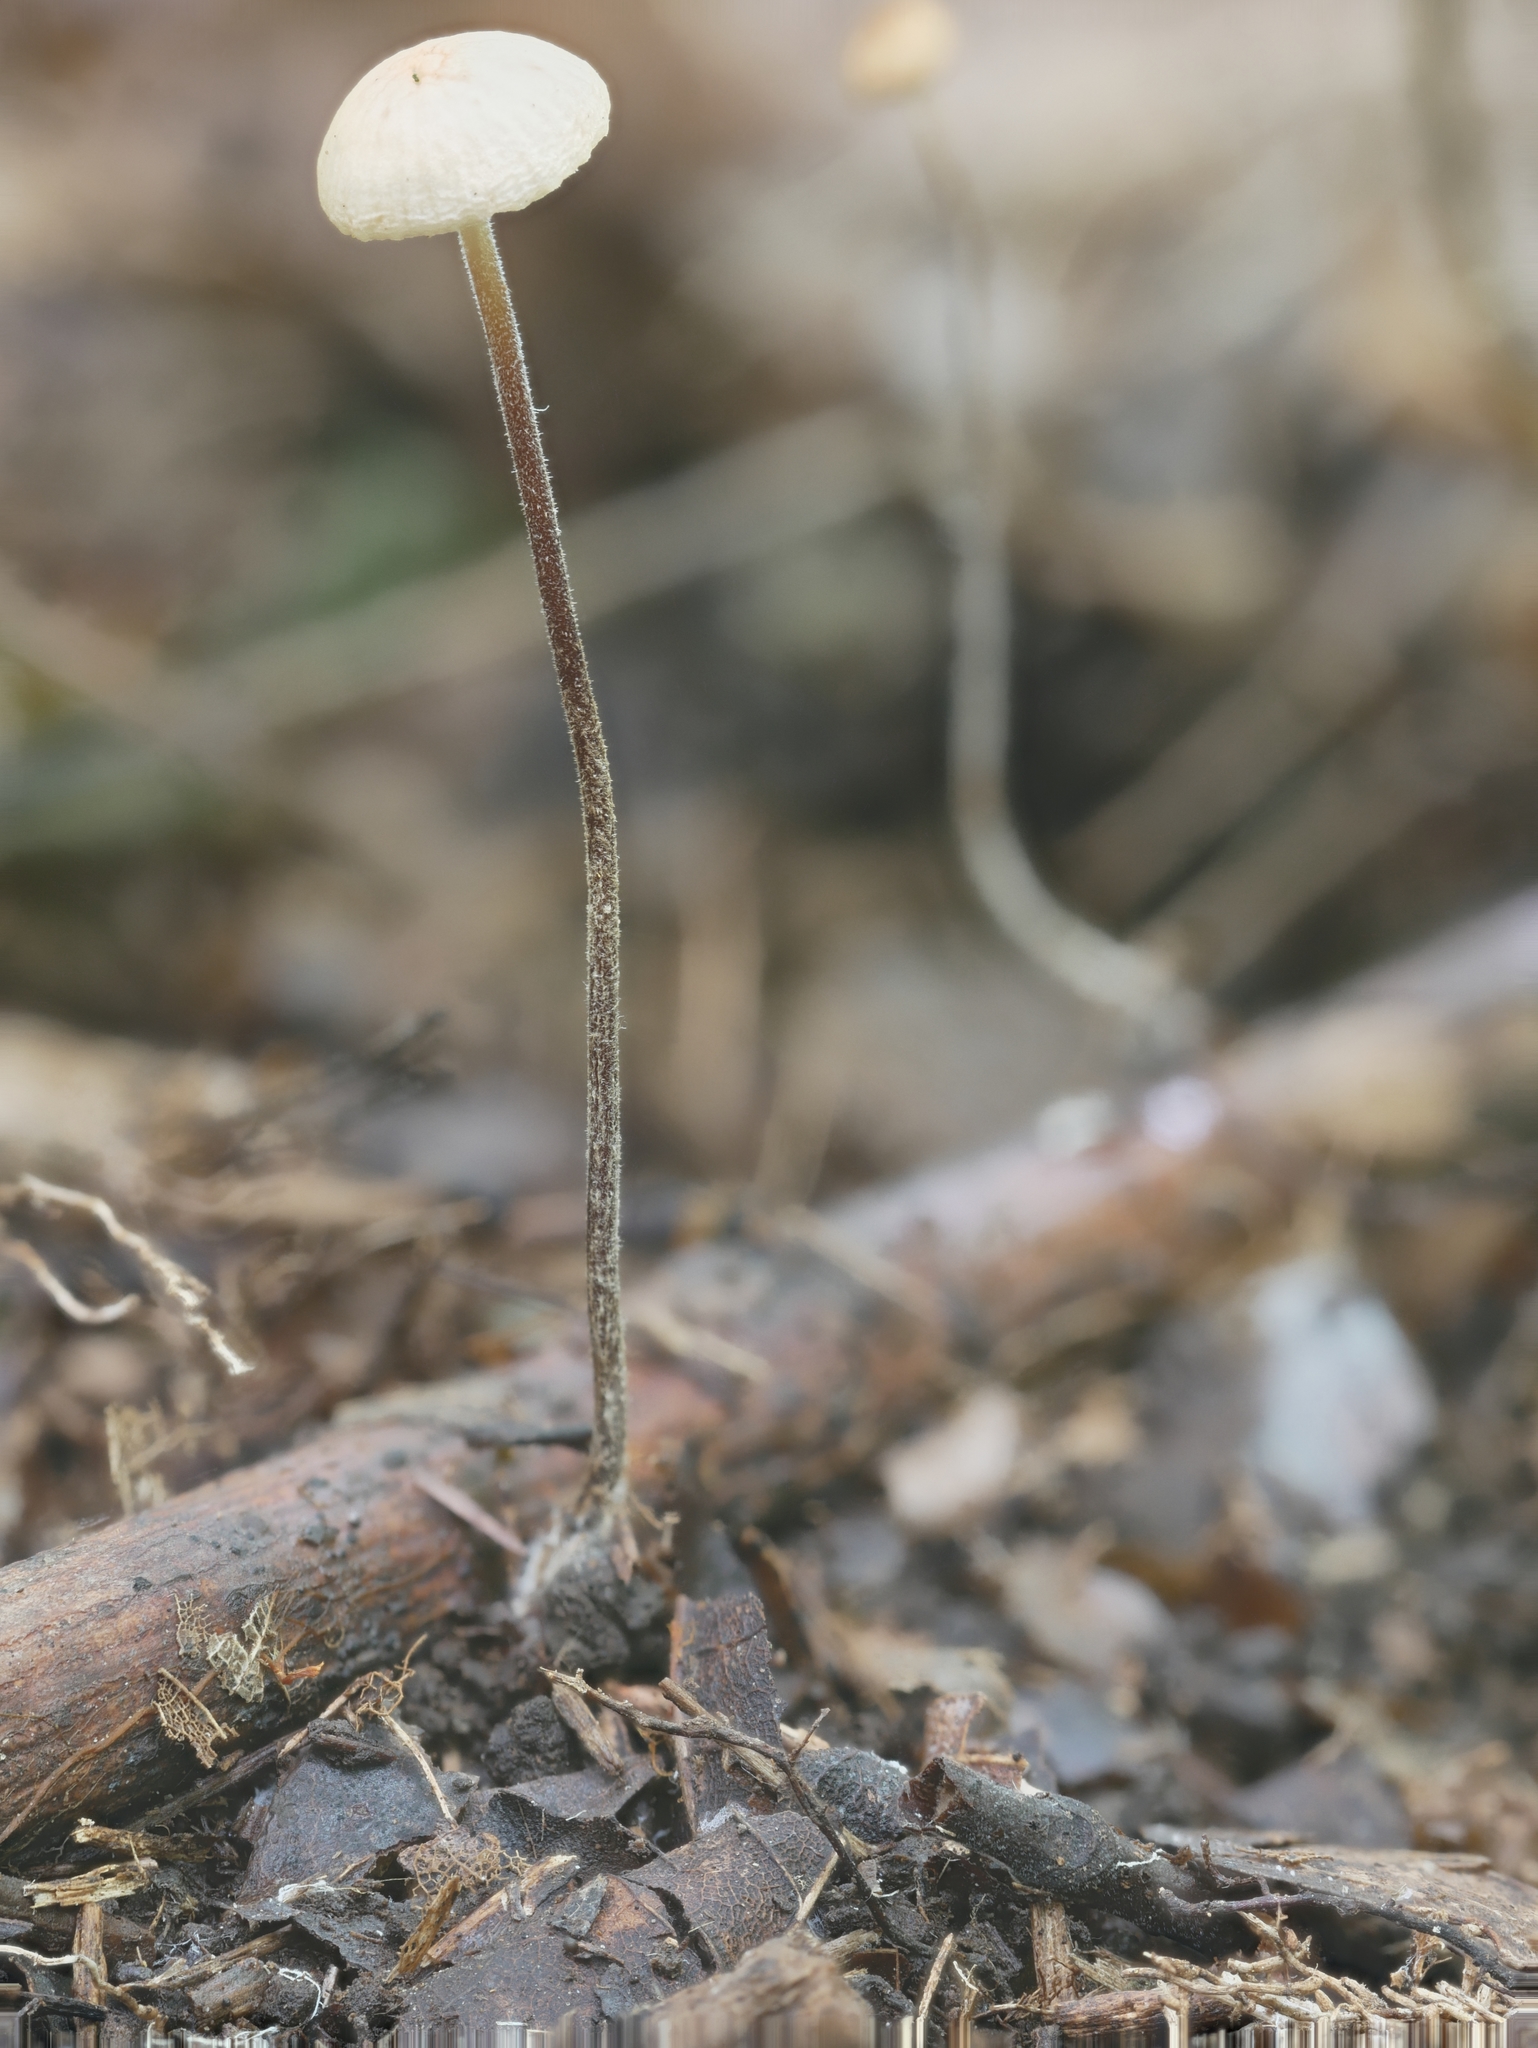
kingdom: Fungi
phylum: Basidiomycota
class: Agaricomycetes
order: Agaricales
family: Physalacriaceae
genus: Rhizomarasmius
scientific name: Rhizomarasmius pyrrhocephalus
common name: Hairy long stem marasmius
